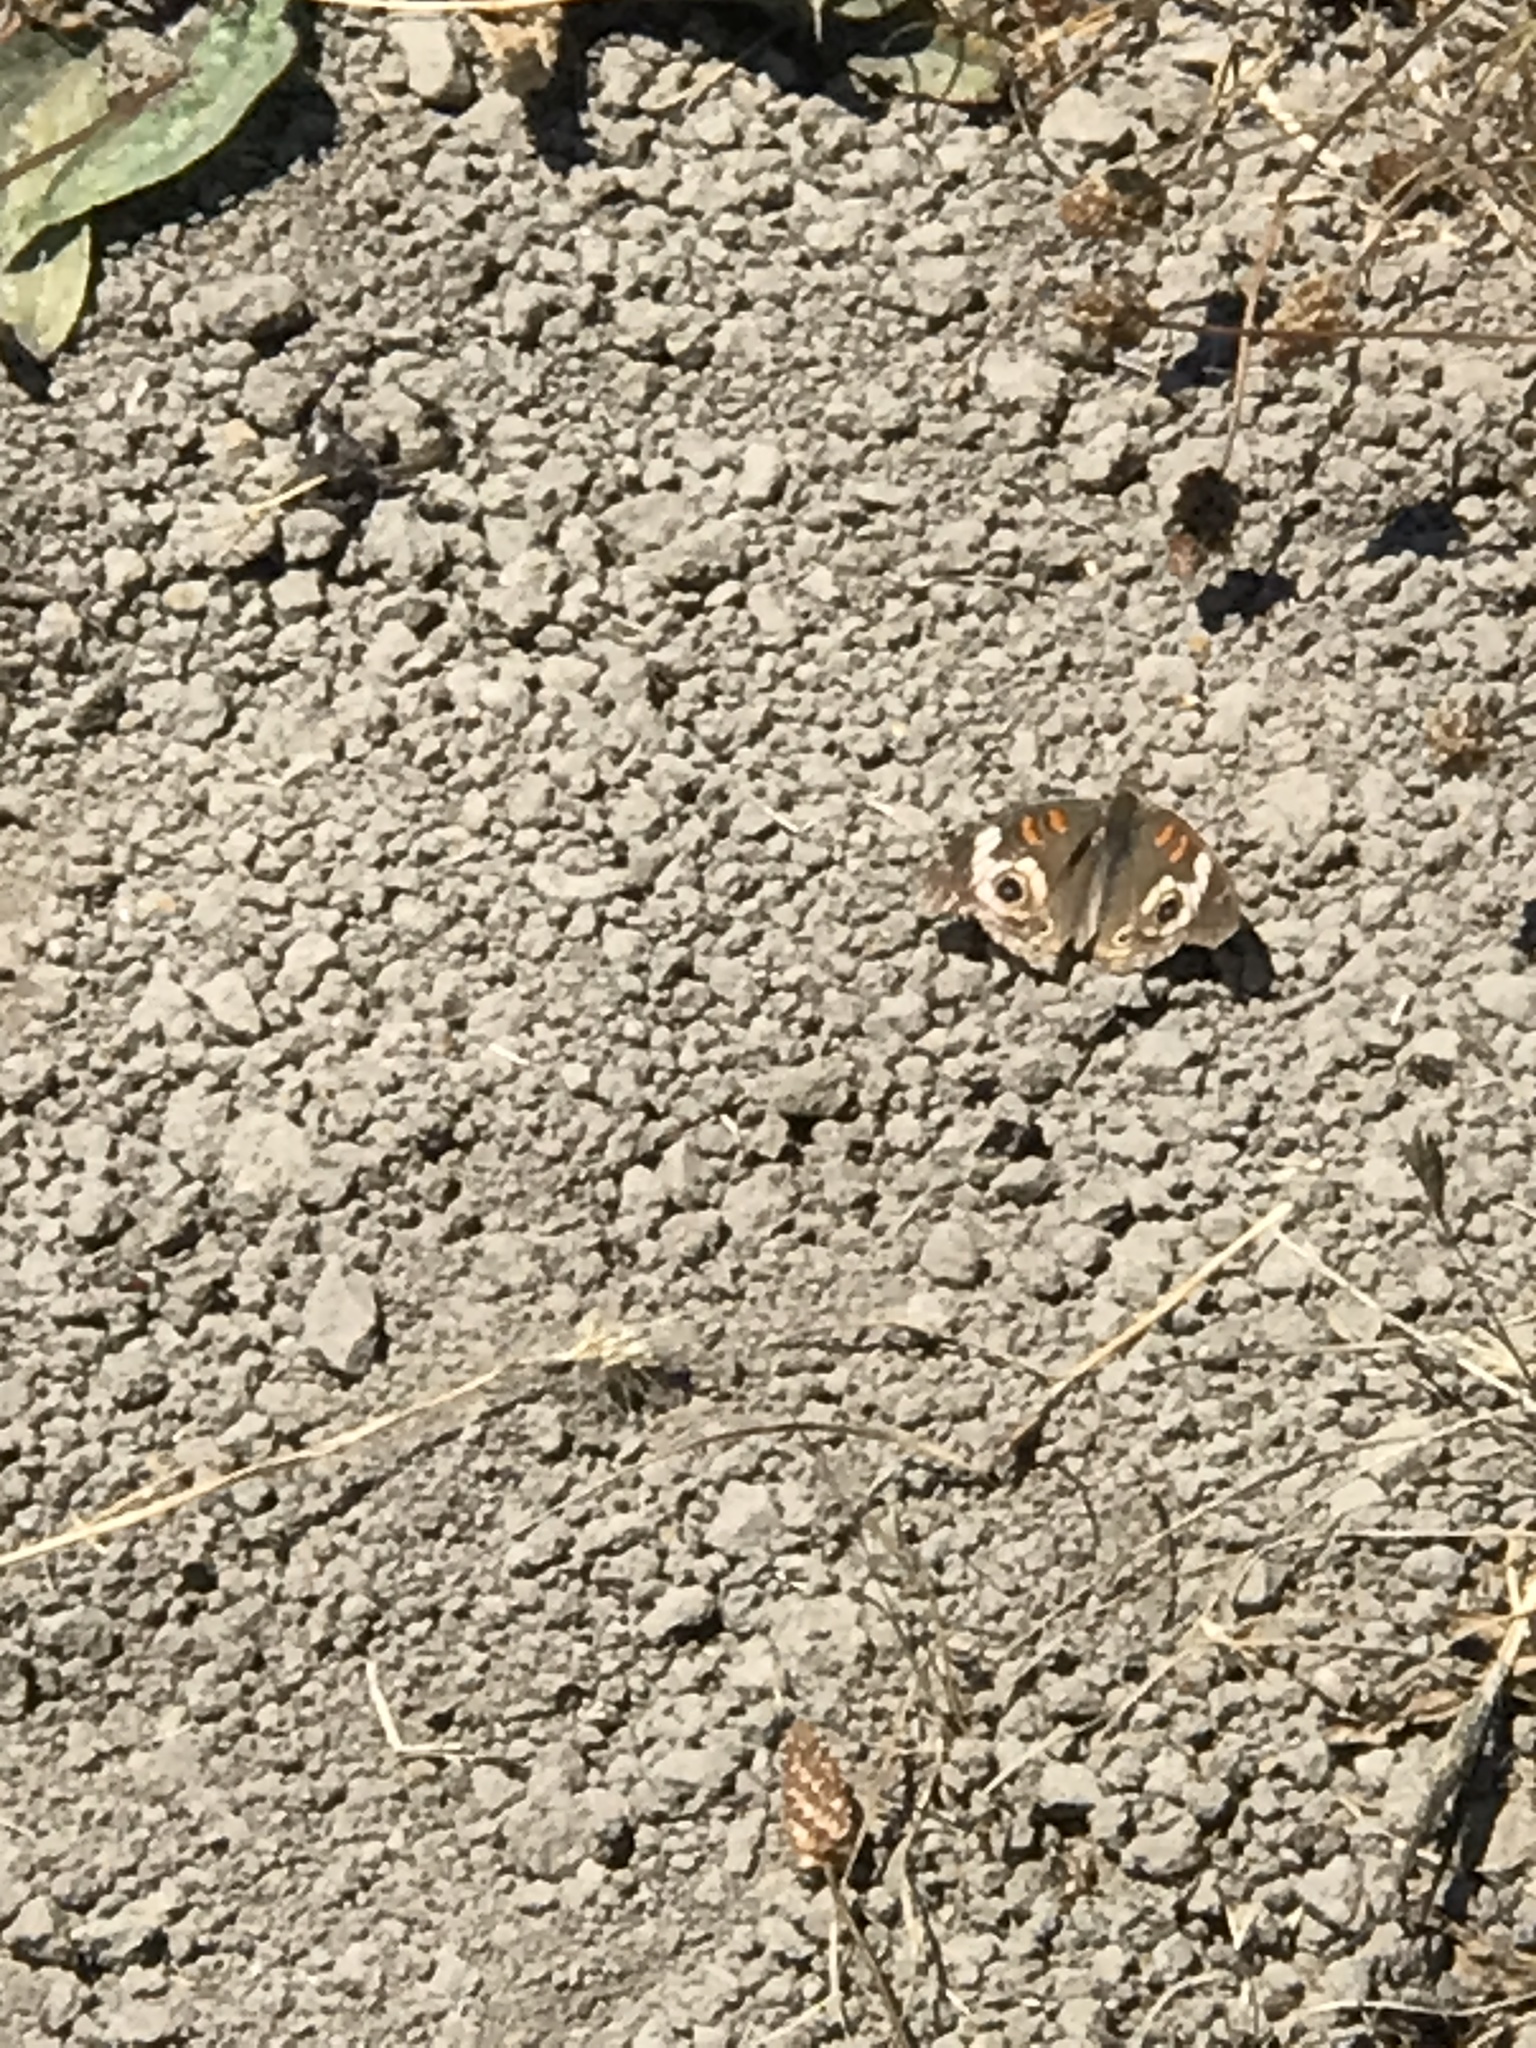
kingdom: Animalia
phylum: Arthropoda
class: Insecta
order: Lepidoptera
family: Nymphalidae
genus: Junonia
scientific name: Junonia grisea
